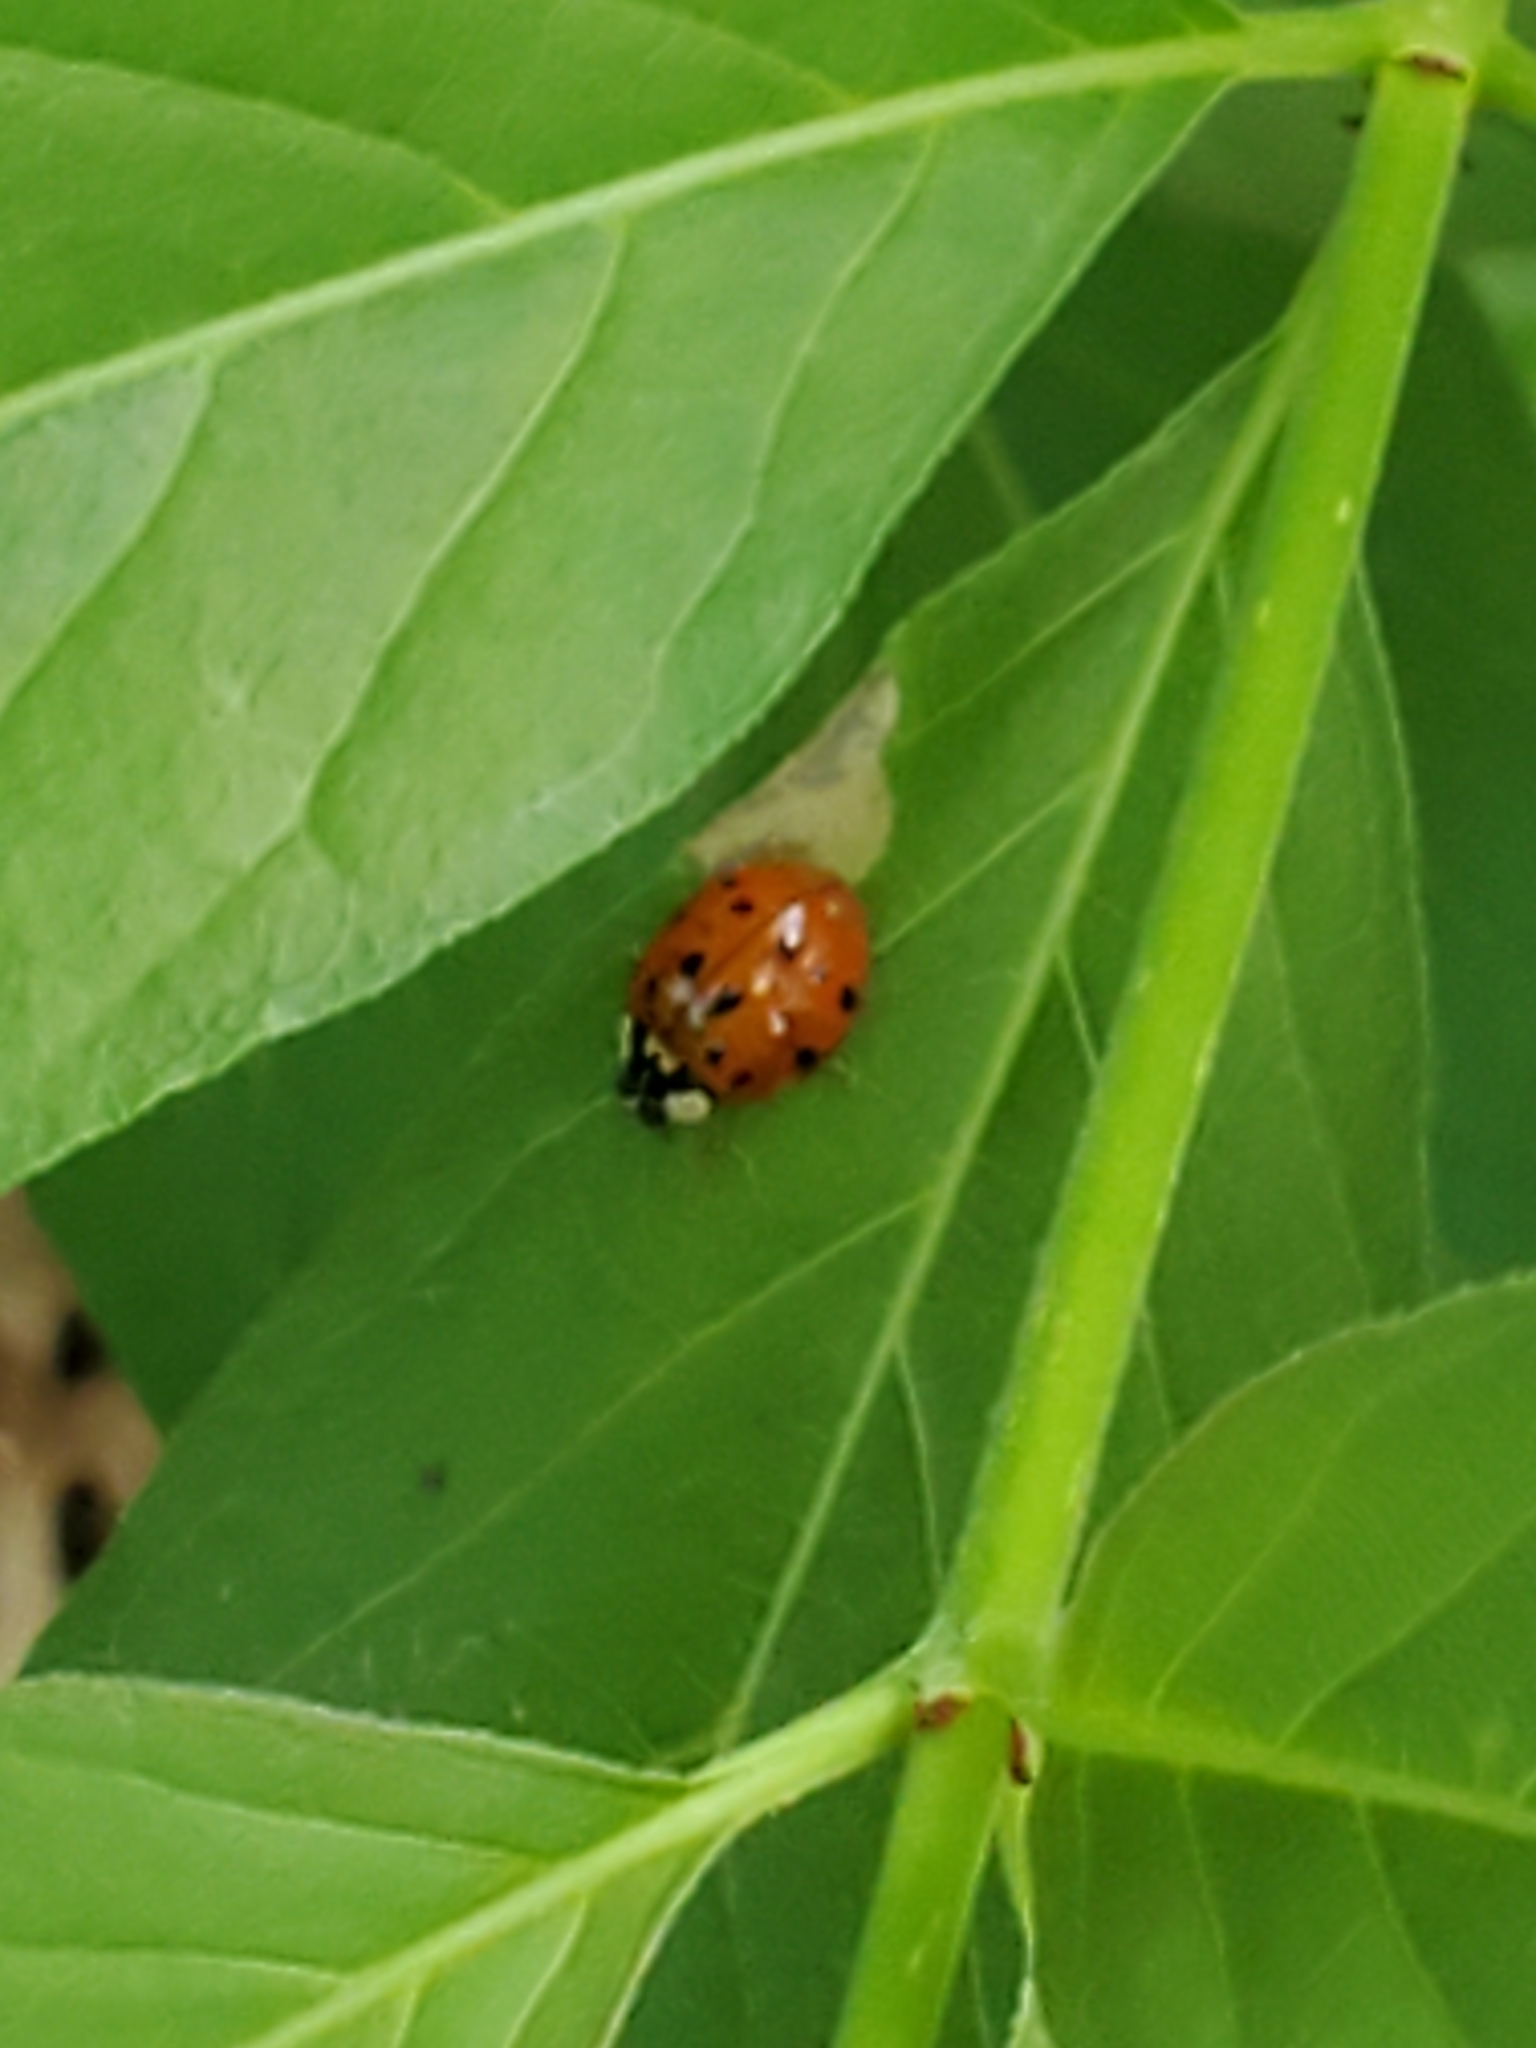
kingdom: Animalia
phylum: Arthropoda
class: Insecta
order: Coleoptera
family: Coccinellidae
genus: Harmonia
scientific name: Harmonia axyridis
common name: Harlequin ladybird
